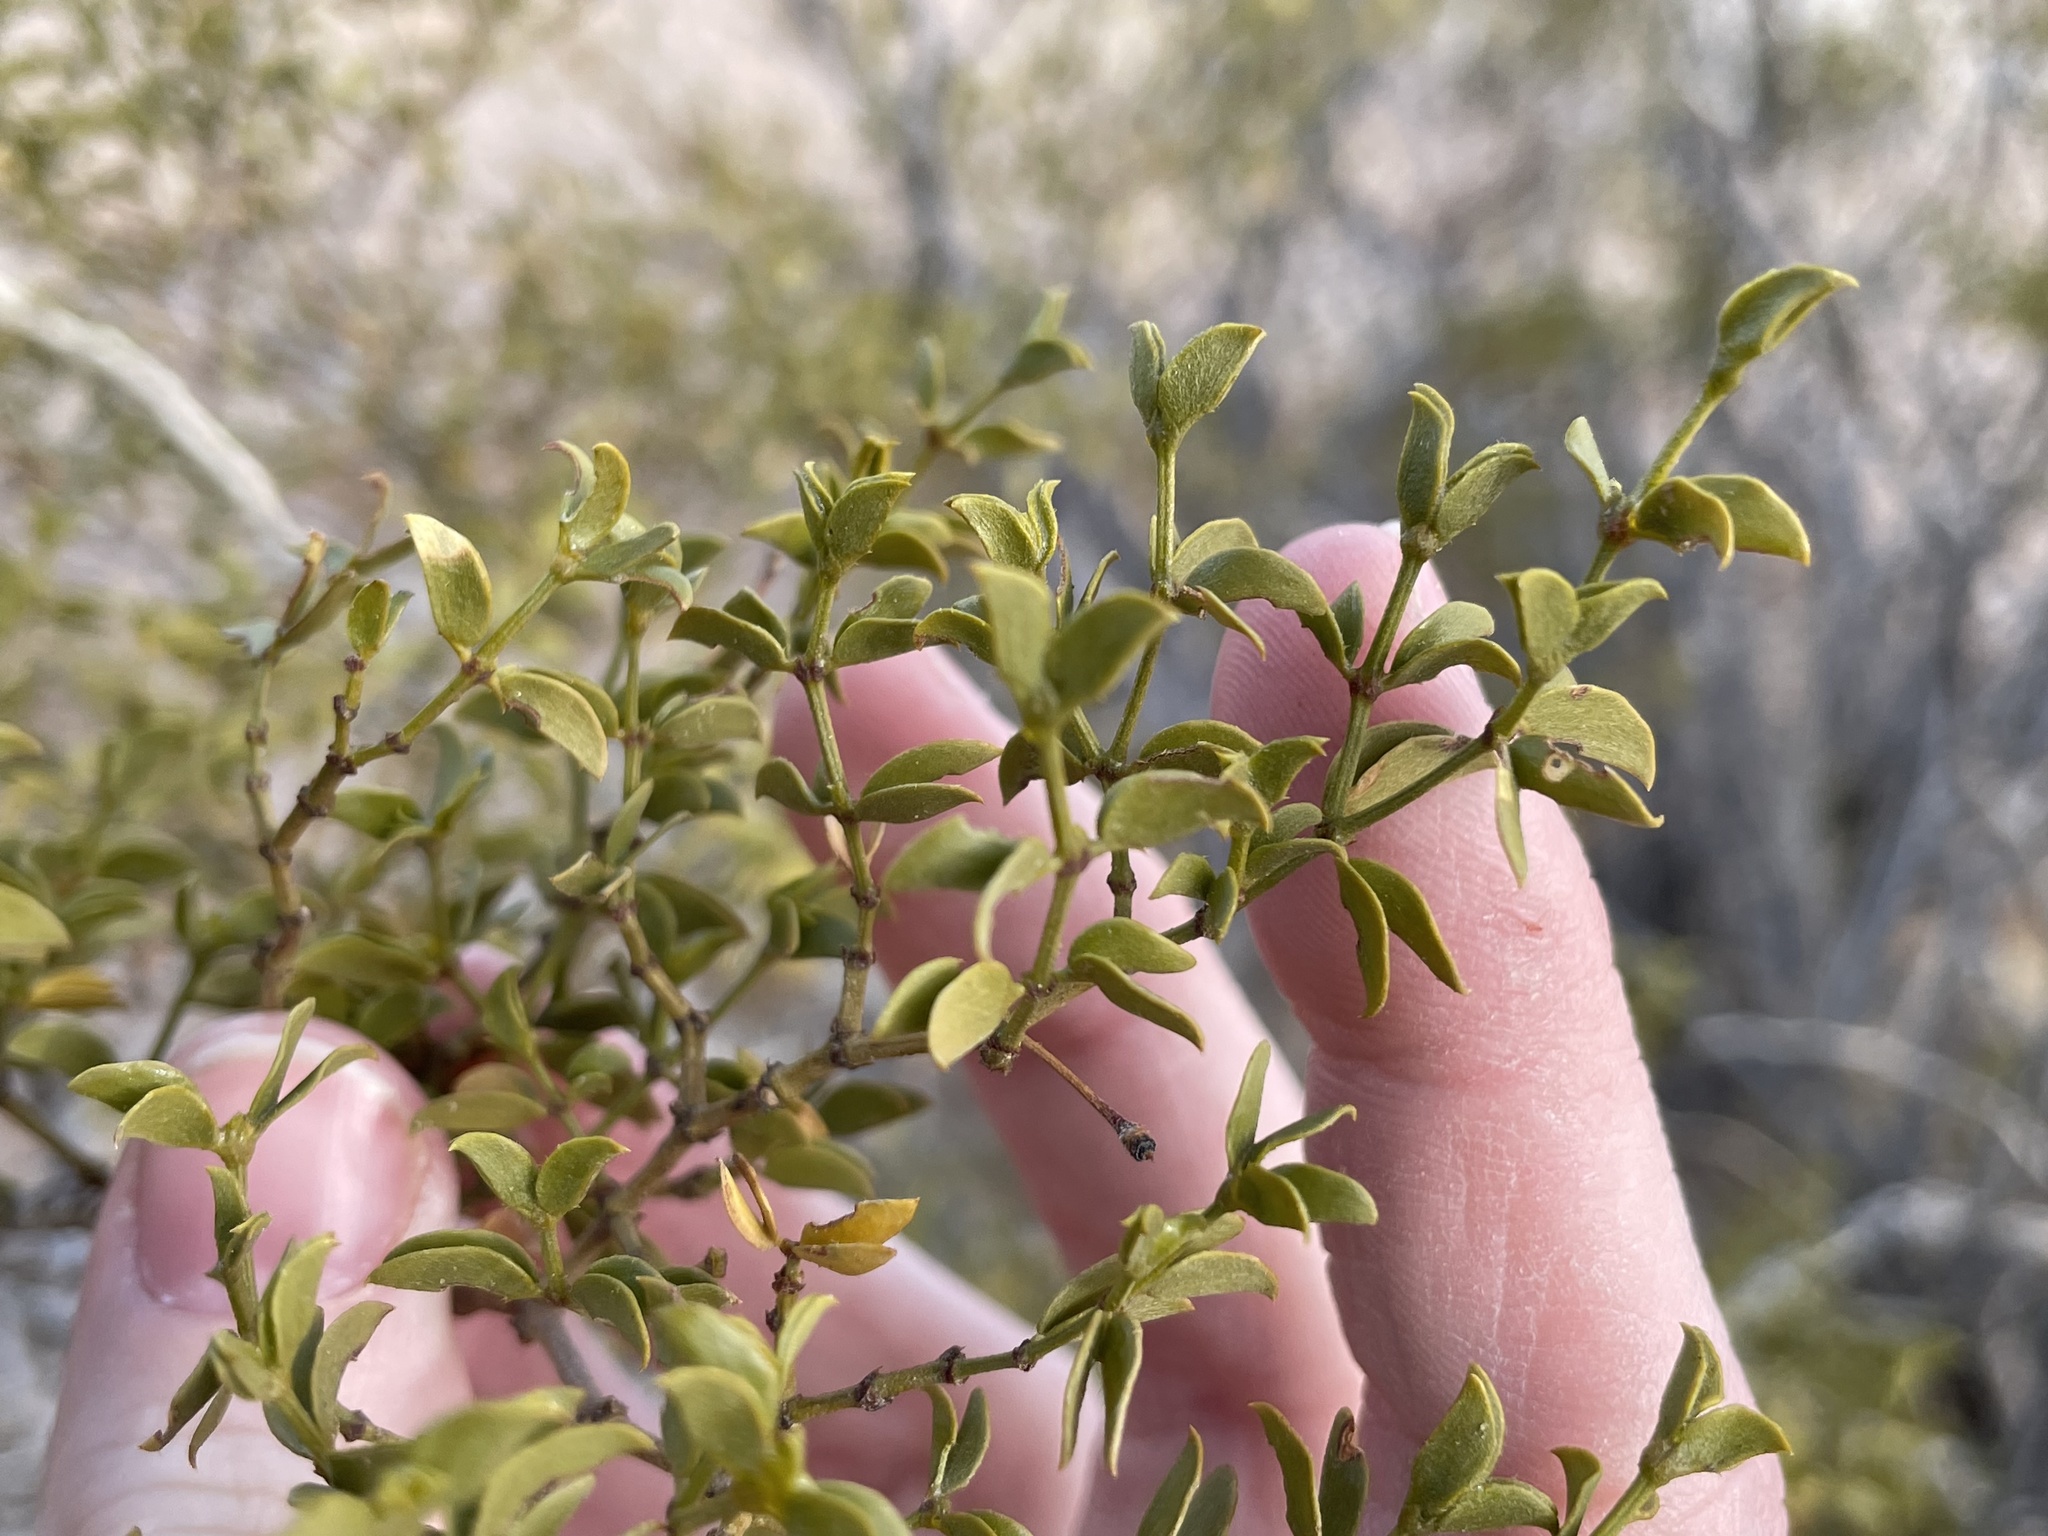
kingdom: Plantae
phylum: Tracheophyta
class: Magnoliopsida
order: Zygophyllales
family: Zygophyllaceae
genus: Larrea
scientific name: Larrea tridentata
